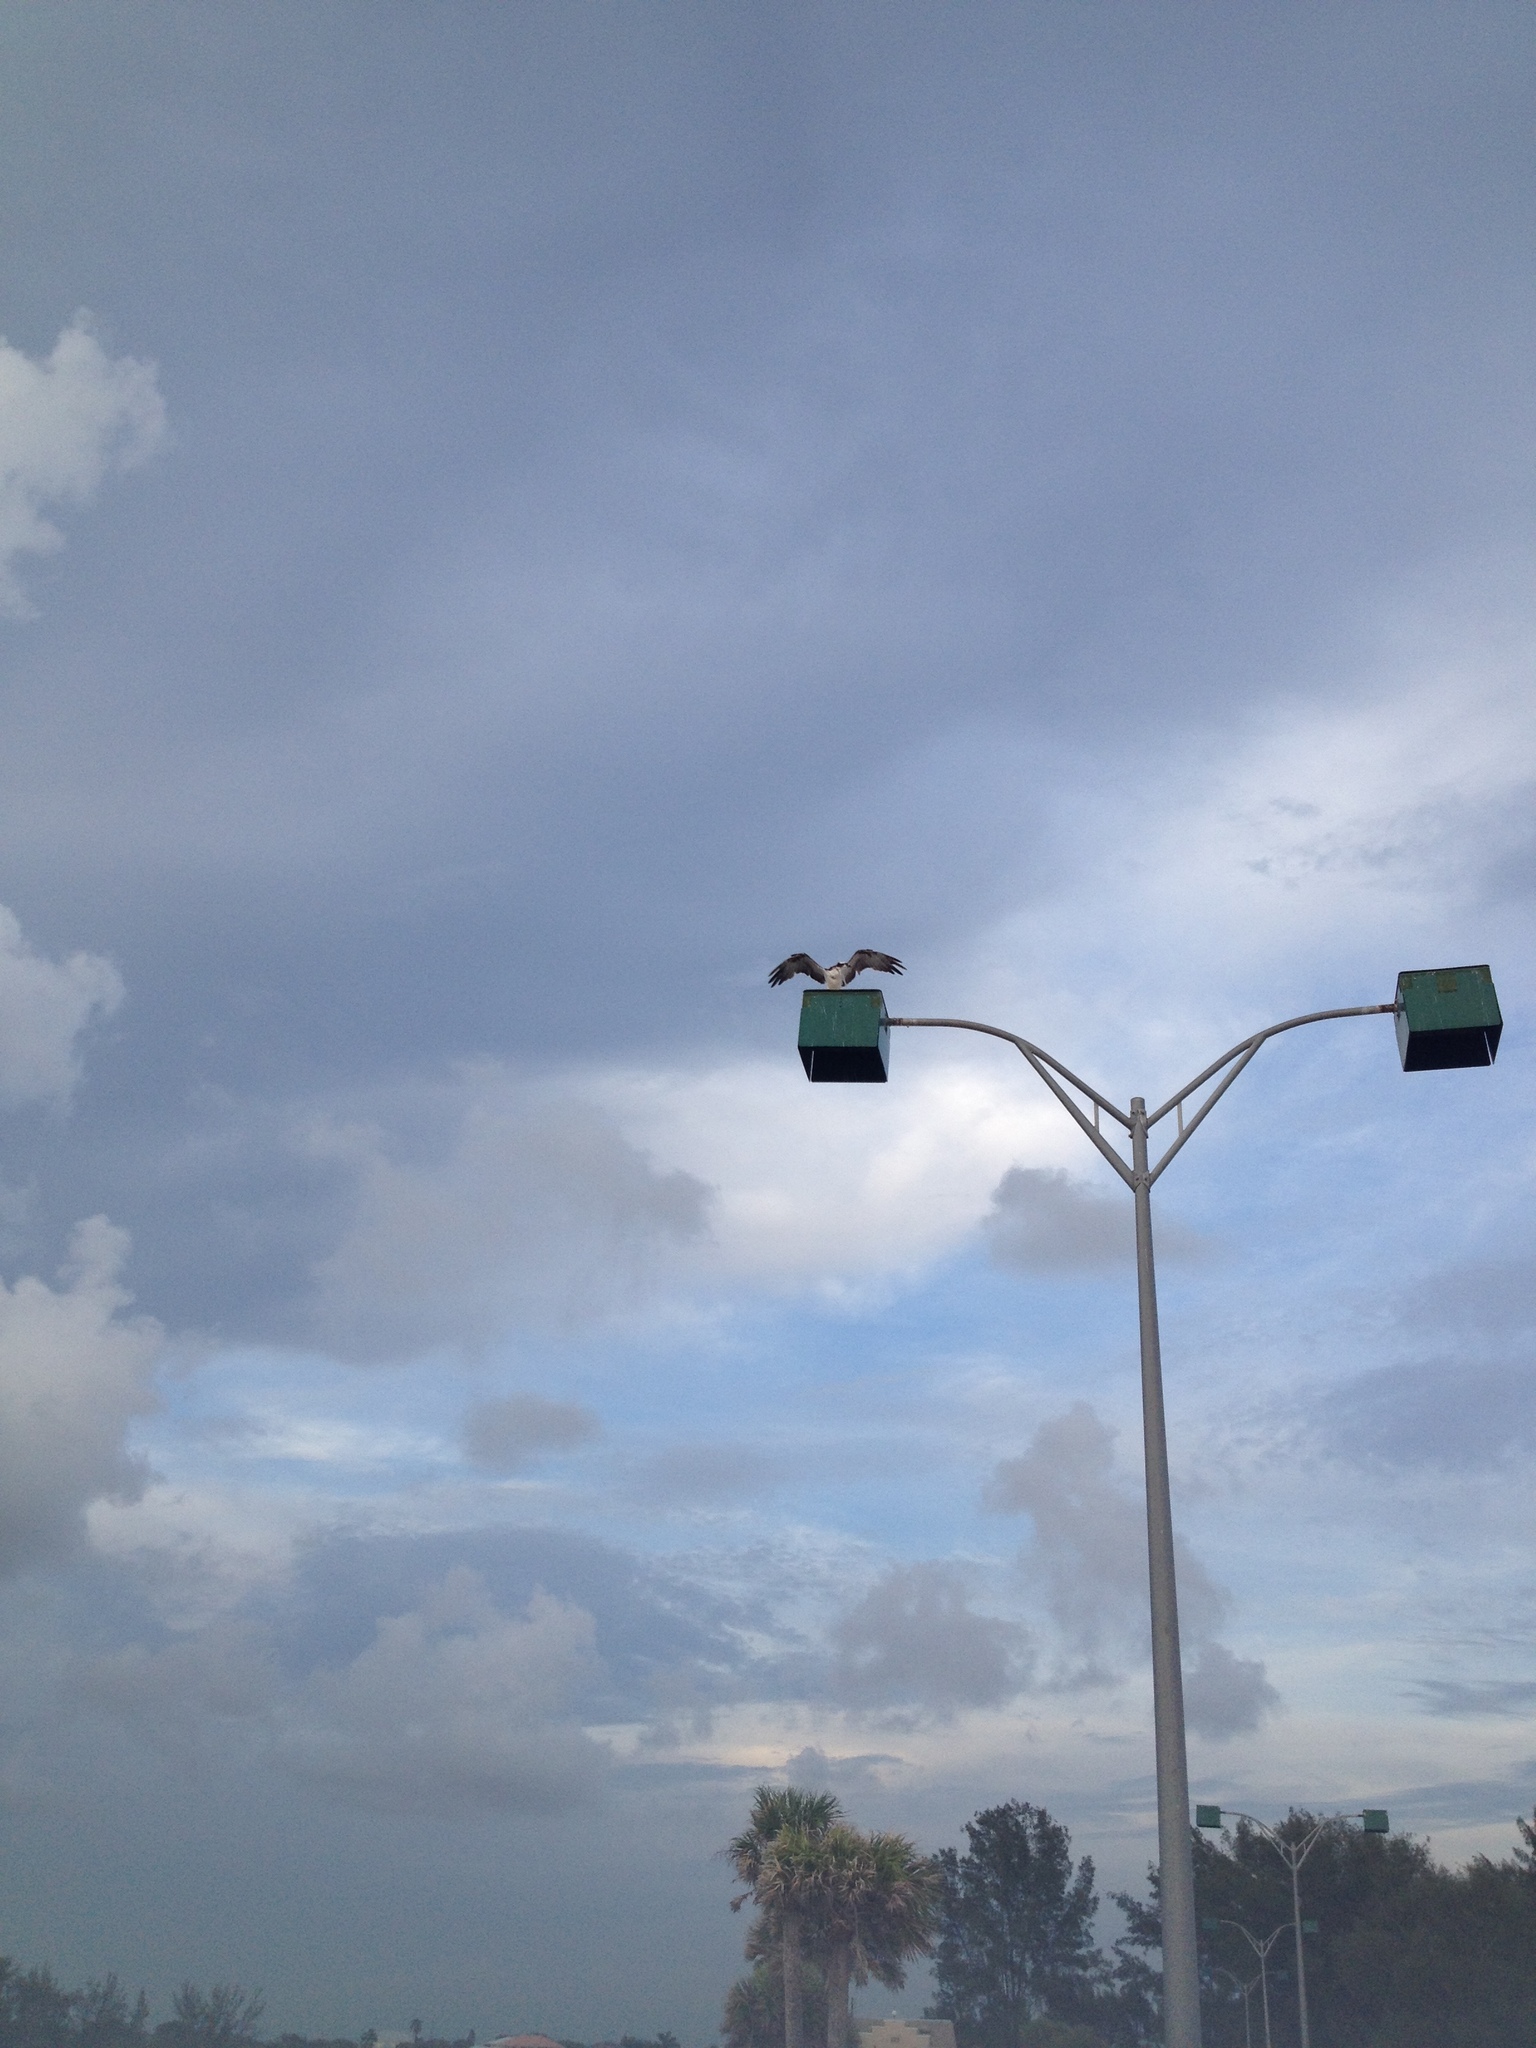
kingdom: Animalia
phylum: Chordata
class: Aves
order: Accipitriformes
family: Pandionidae
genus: Pandion
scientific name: Pandion haliaetus
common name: Osprey
